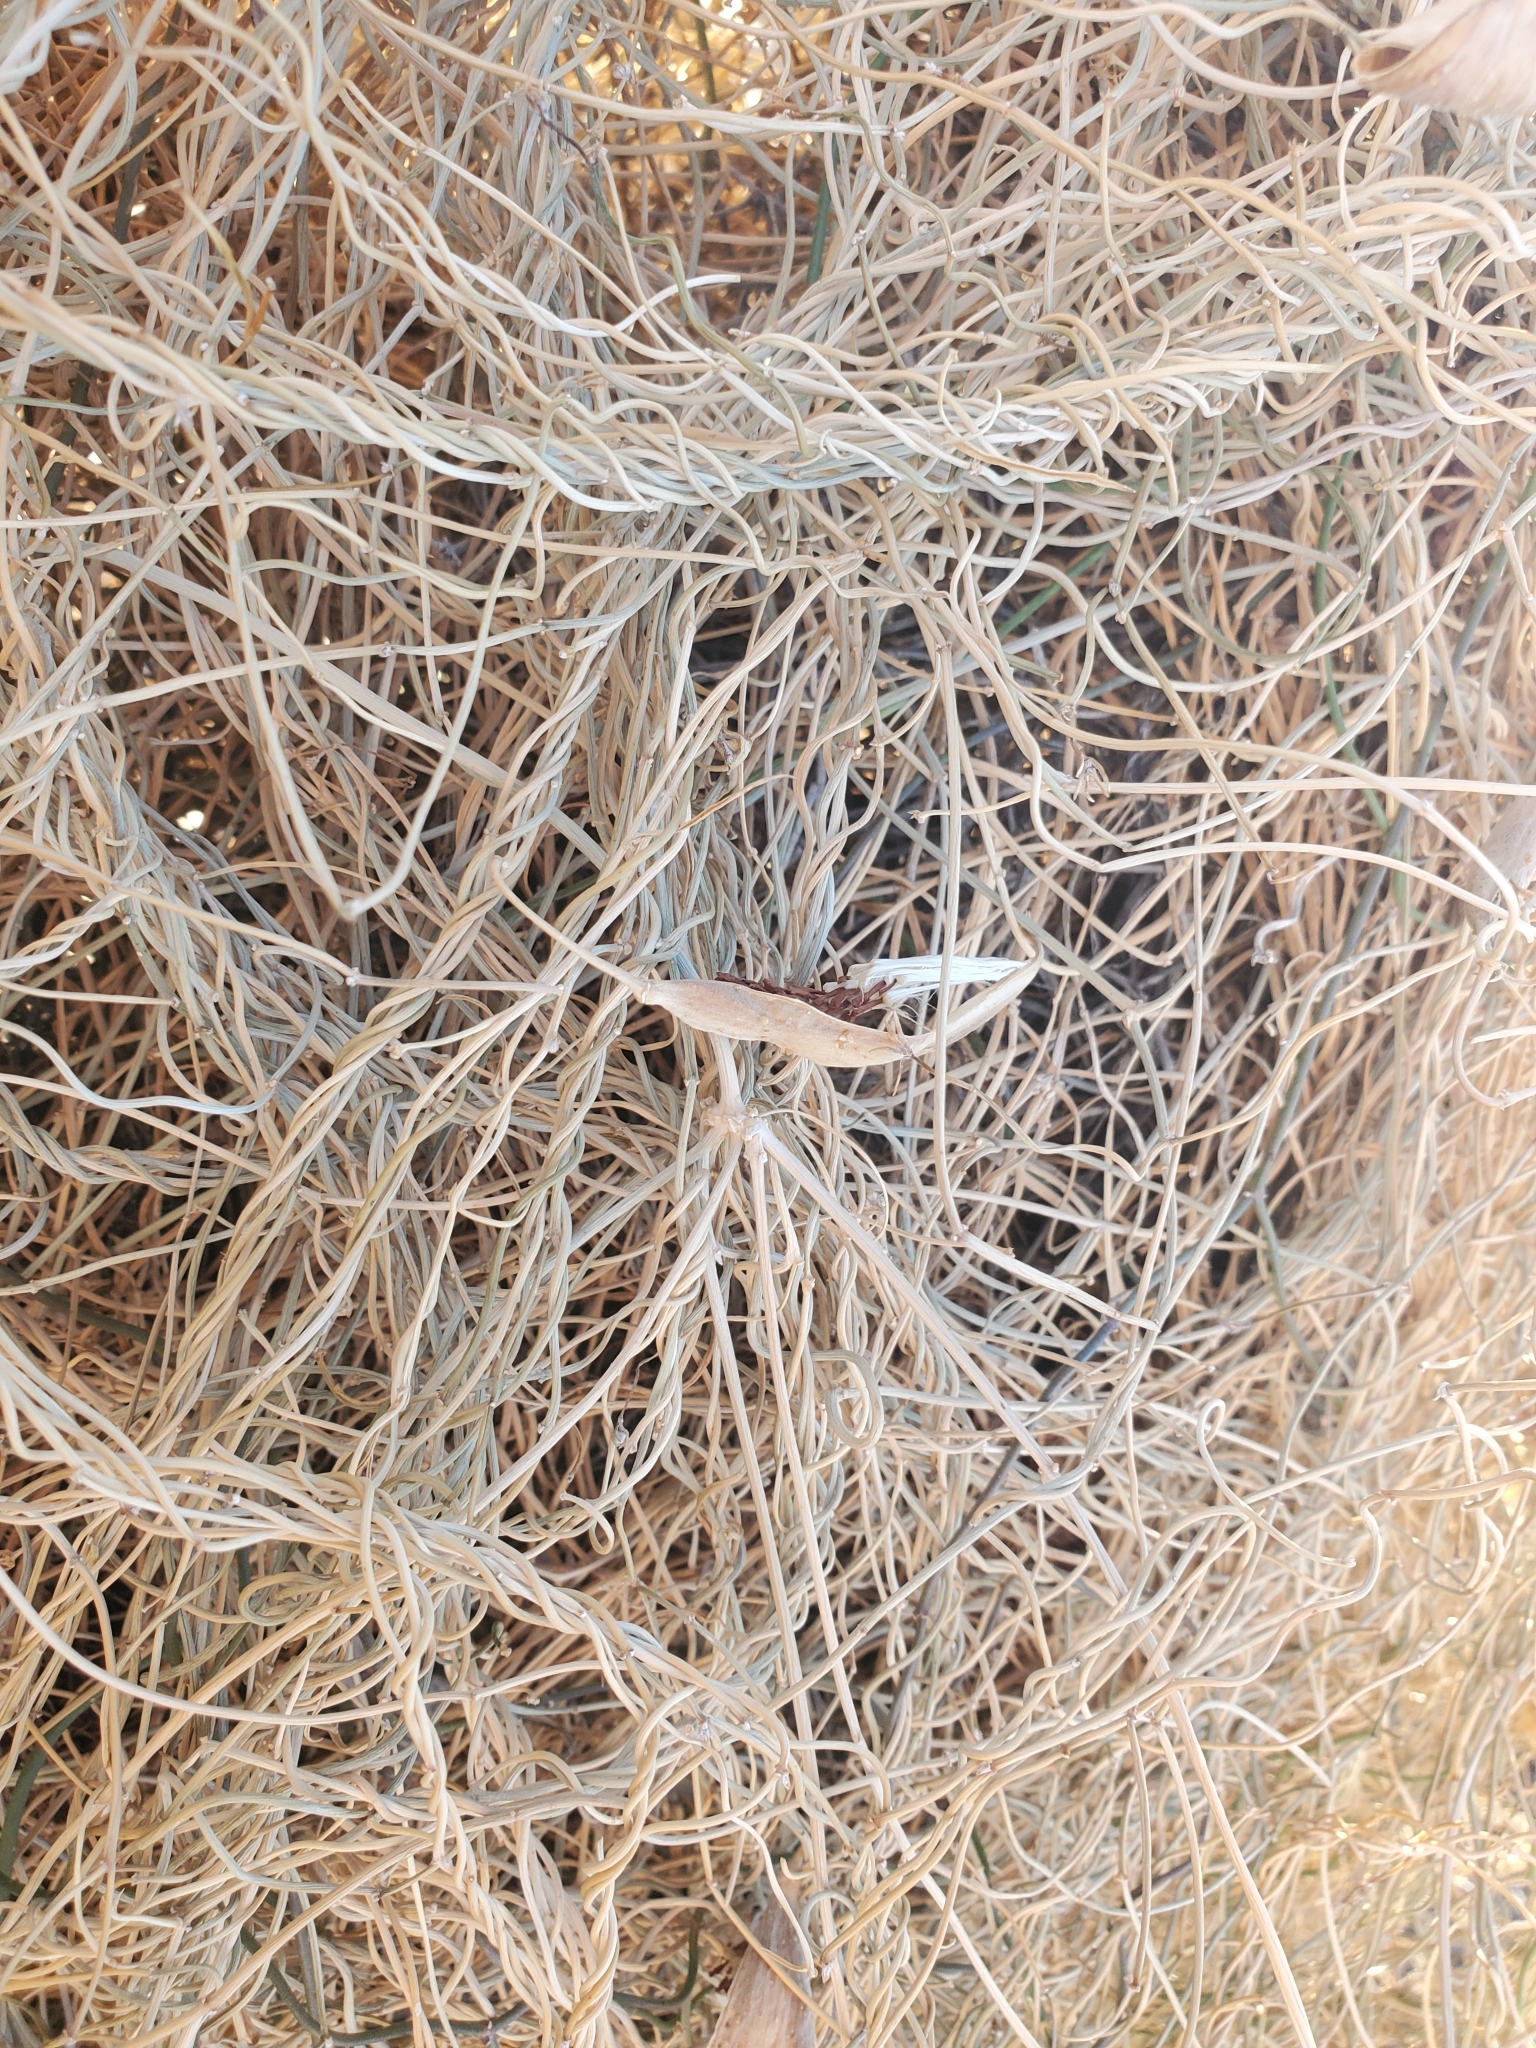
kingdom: Plantae
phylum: Tracheophyta
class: Magnoliopsida
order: Gentianales
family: Apocynaceae
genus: Funastrum
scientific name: Funastrum heterophyllum
